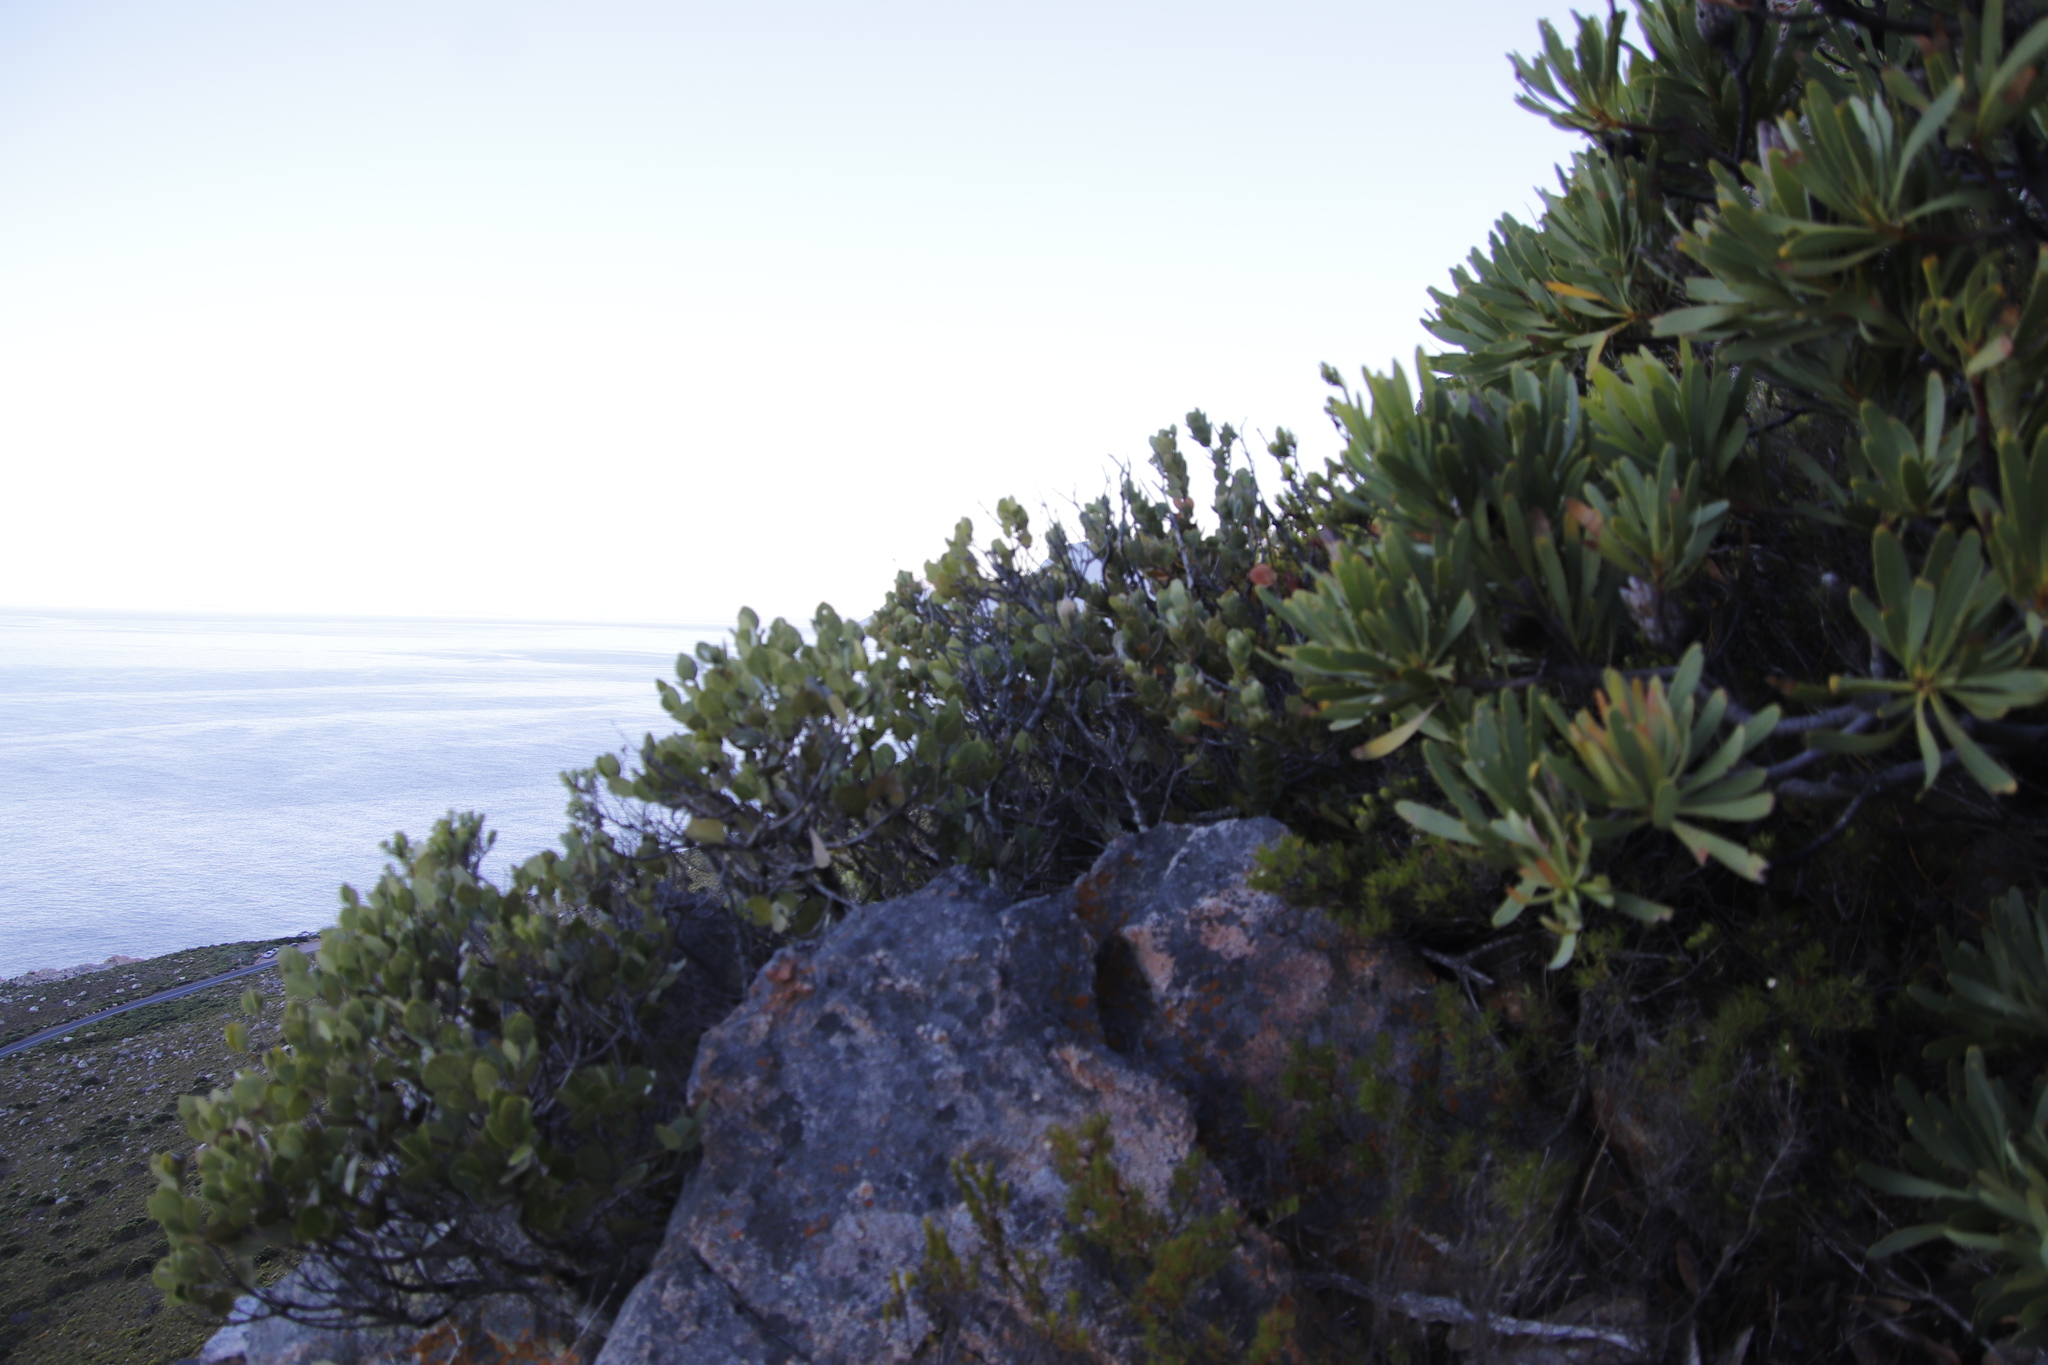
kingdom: Plantae
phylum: Tracheophyta
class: Magnoliopsida
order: Santalales
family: Santalaceae
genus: Osyris
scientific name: Osyris compressa
